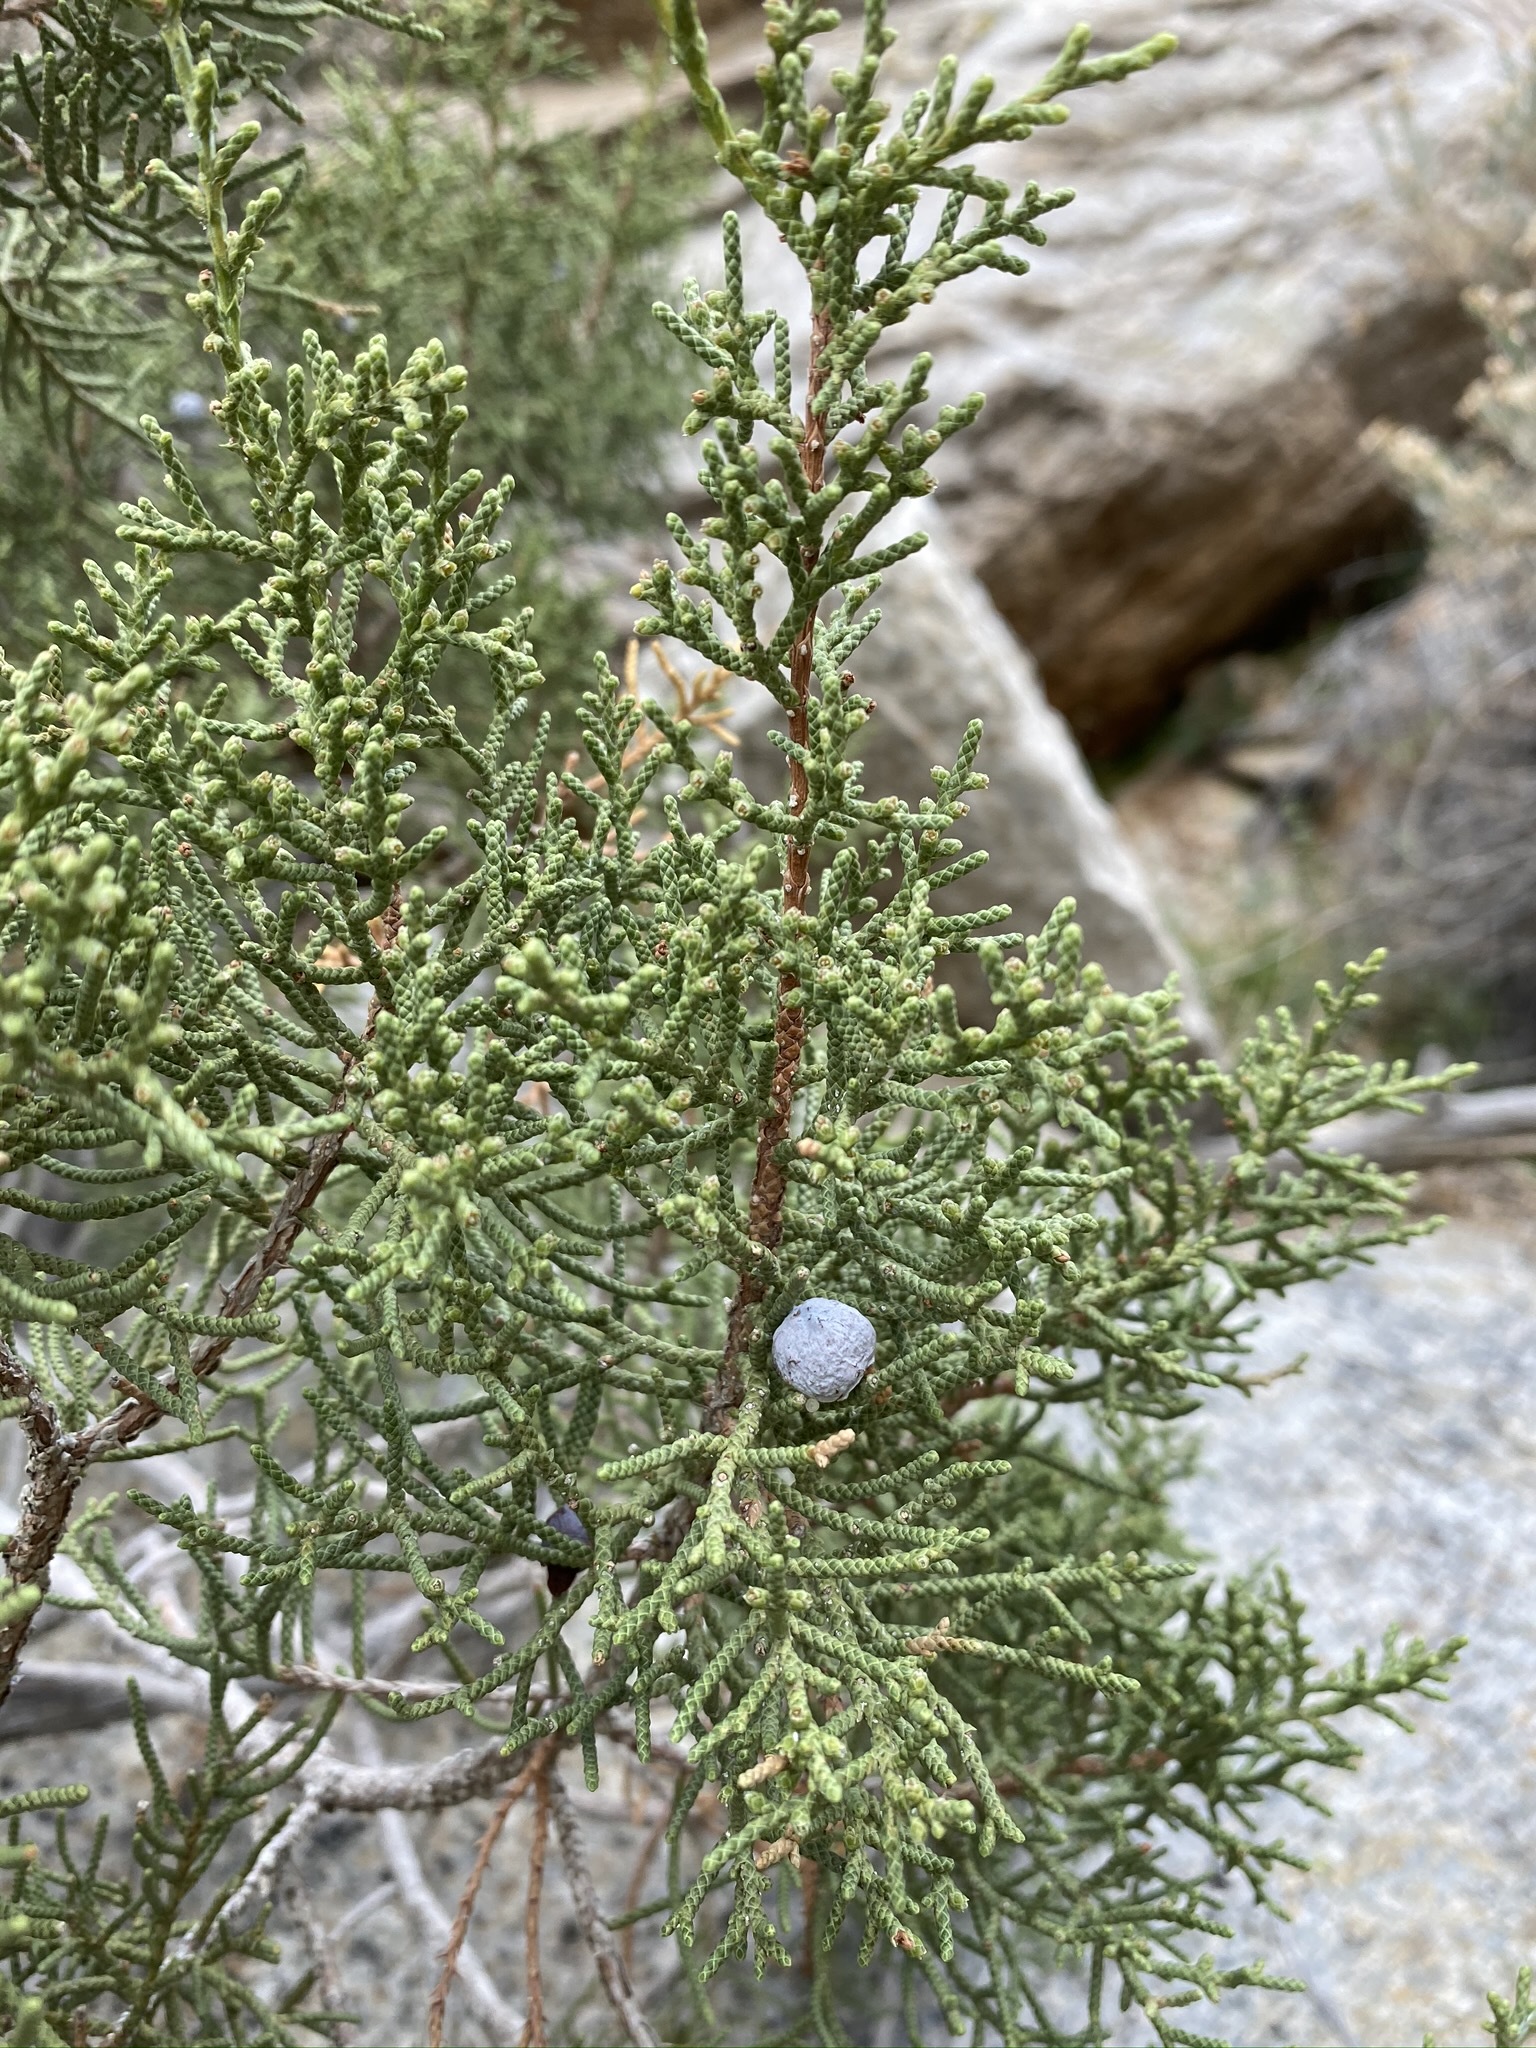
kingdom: Plantae
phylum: Tracheophyta
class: Pinopsida
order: Pinales
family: Cupressaceae
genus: Juniperus
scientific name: Juniperus californica
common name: California juniper
